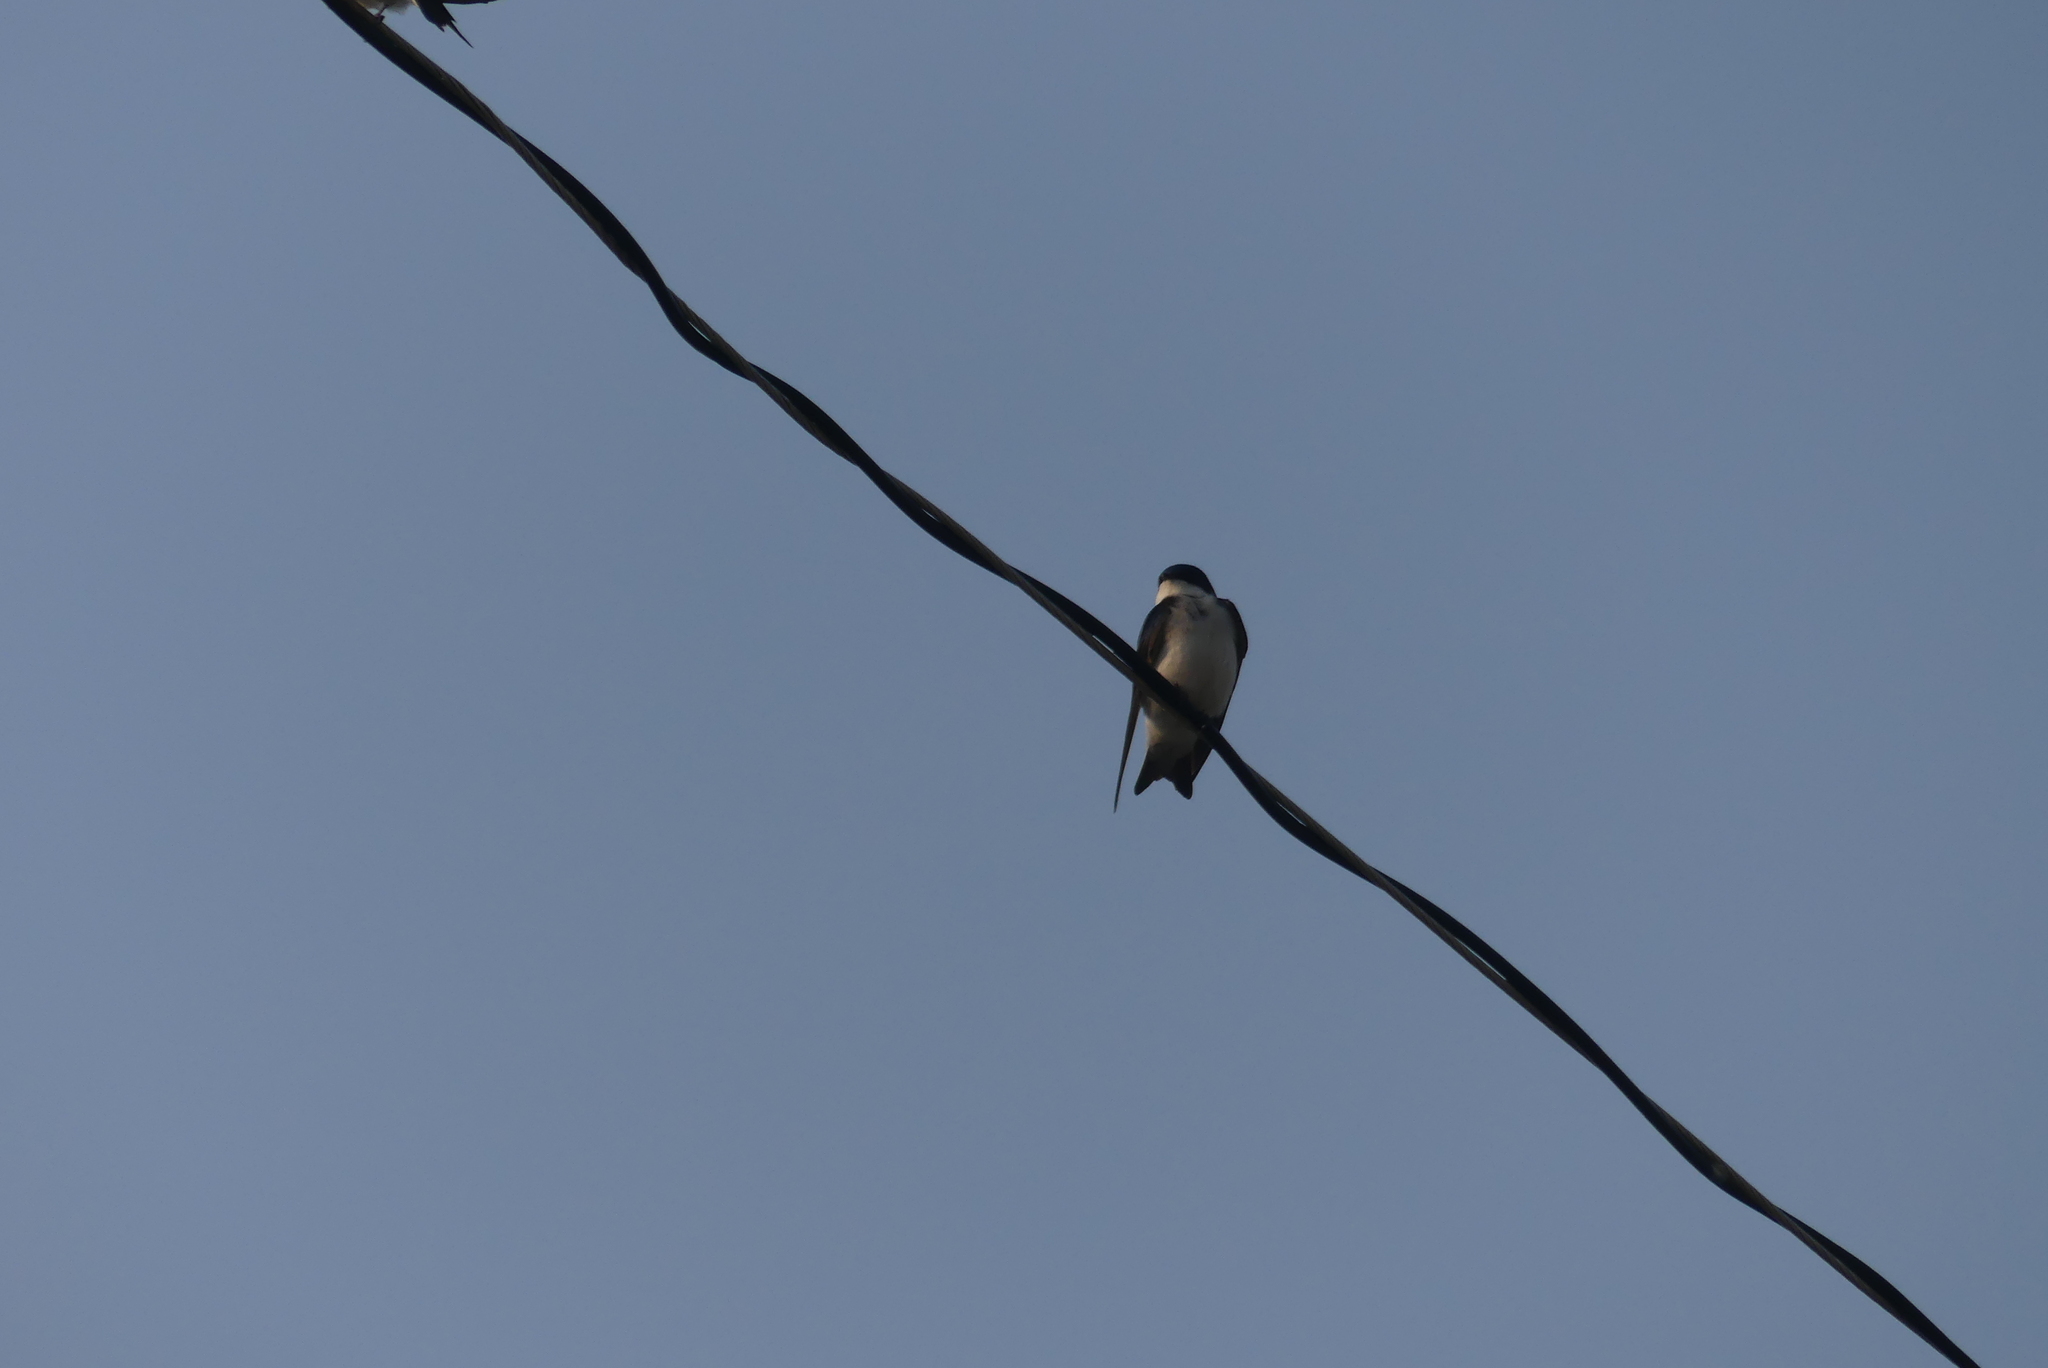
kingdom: Animalia
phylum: Chordata
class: Aves
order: Passeriformes
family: Hirundinidae
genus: Tachycineta
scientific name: Tachycineta bicolor
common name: Tree swallow
